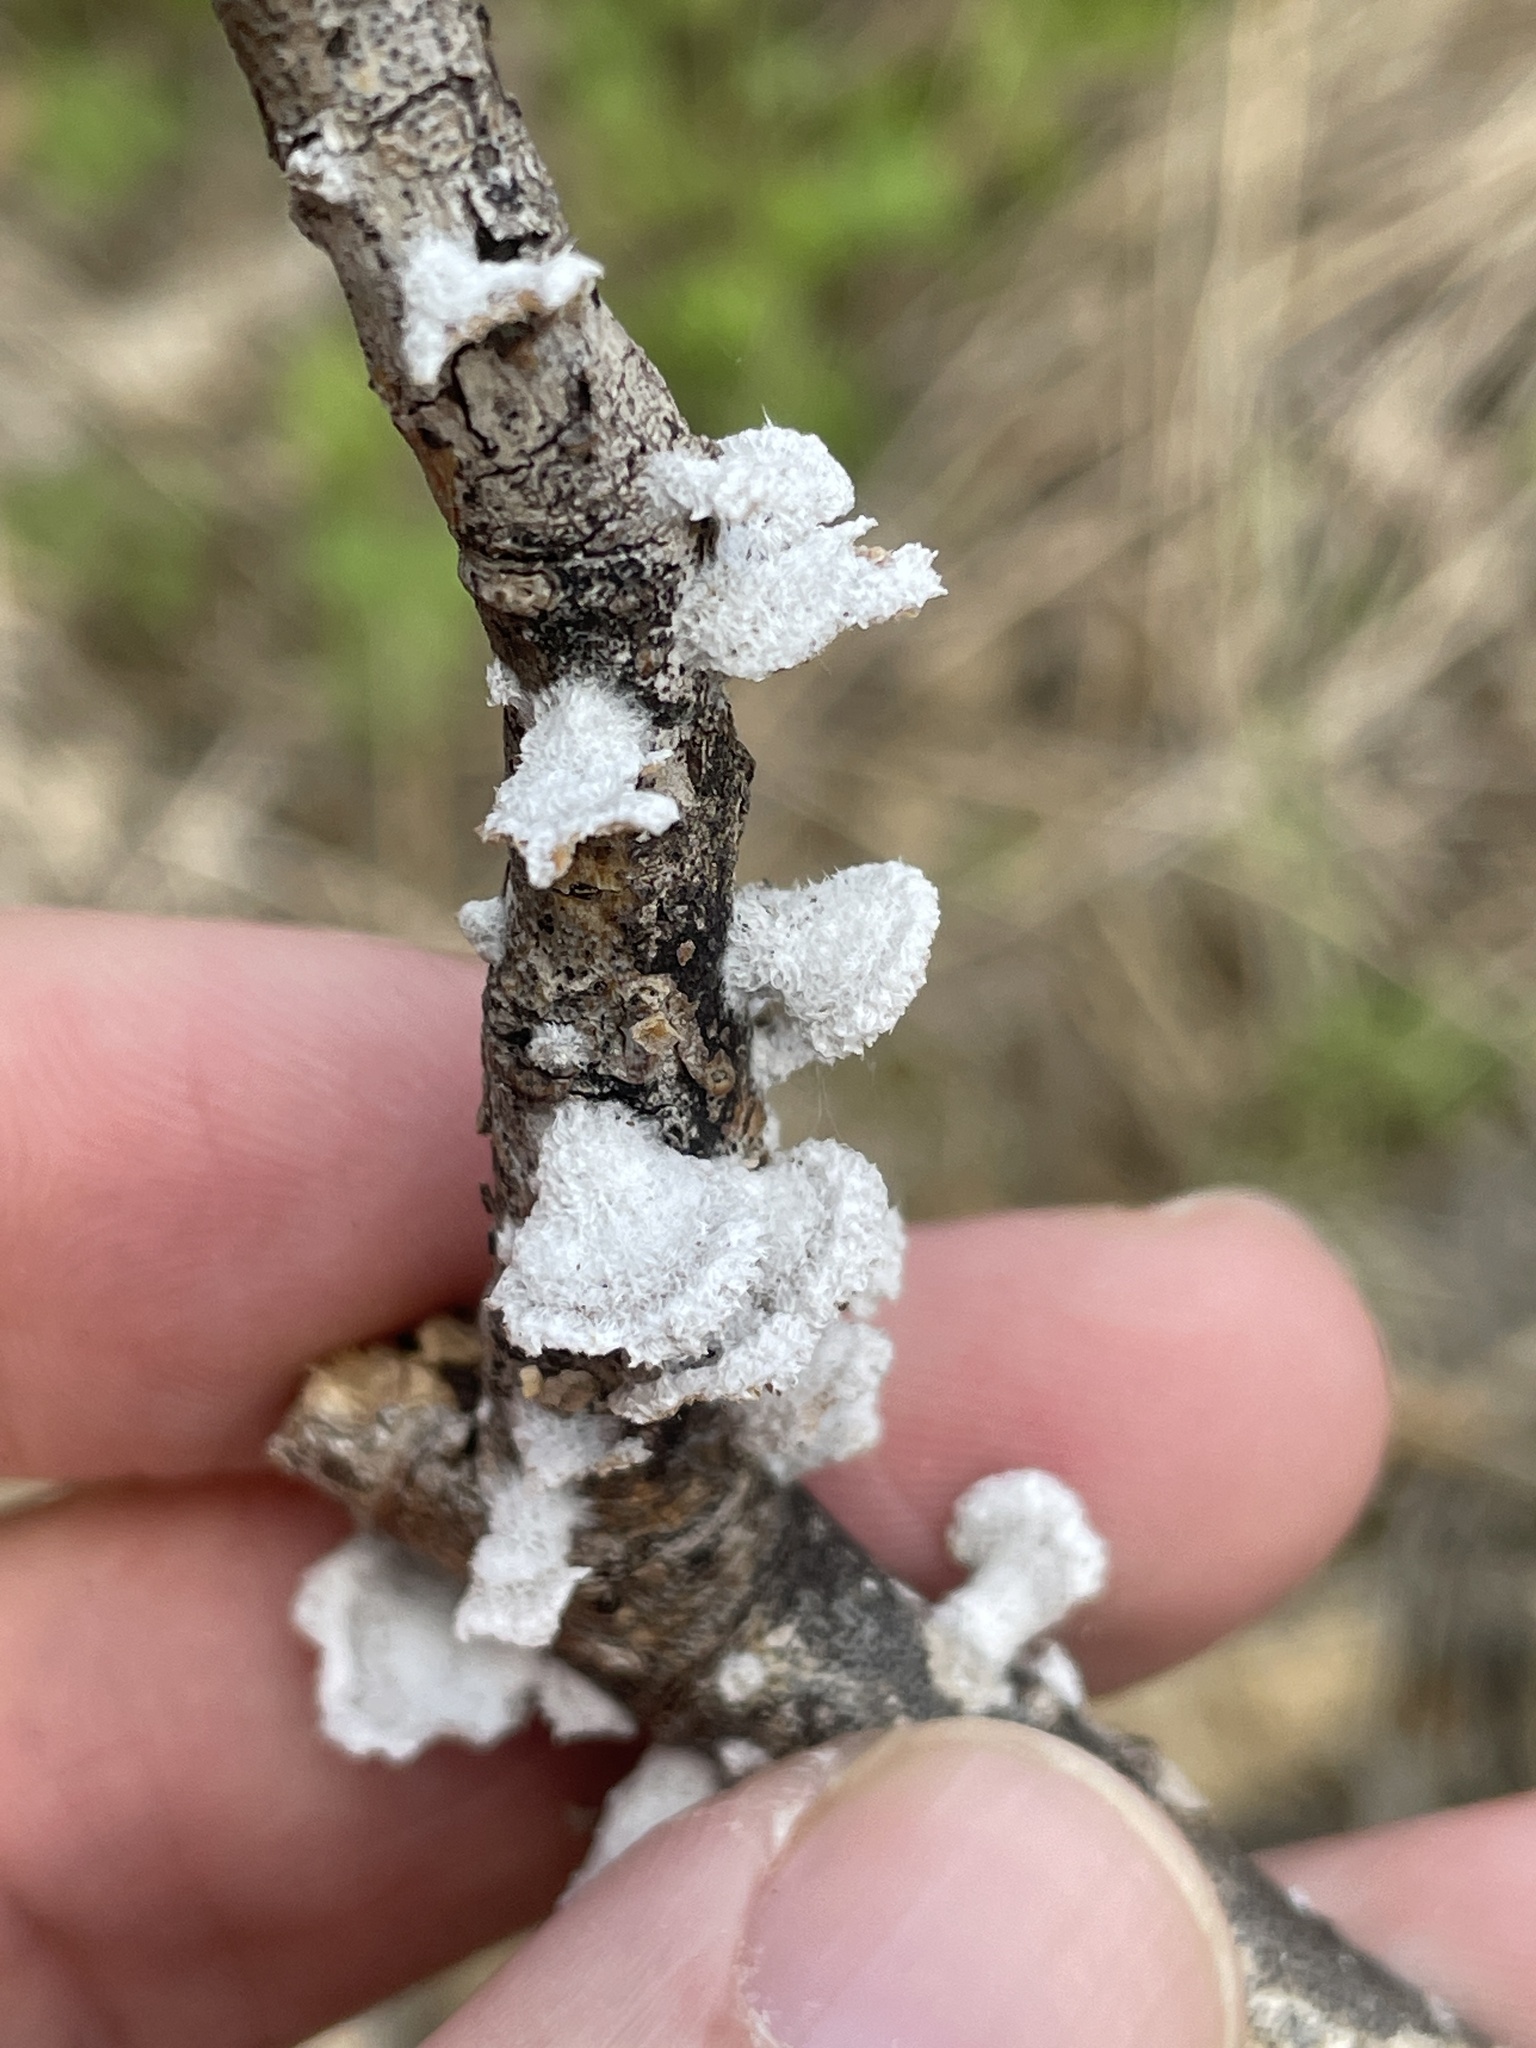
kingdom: Fungi
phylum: Basidiomycota
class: Agaricomycetes
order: Agaricales
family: Schizophyllaceae
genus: Schizophyllum
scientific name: Schizophyllum commune
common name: Common porecrust
